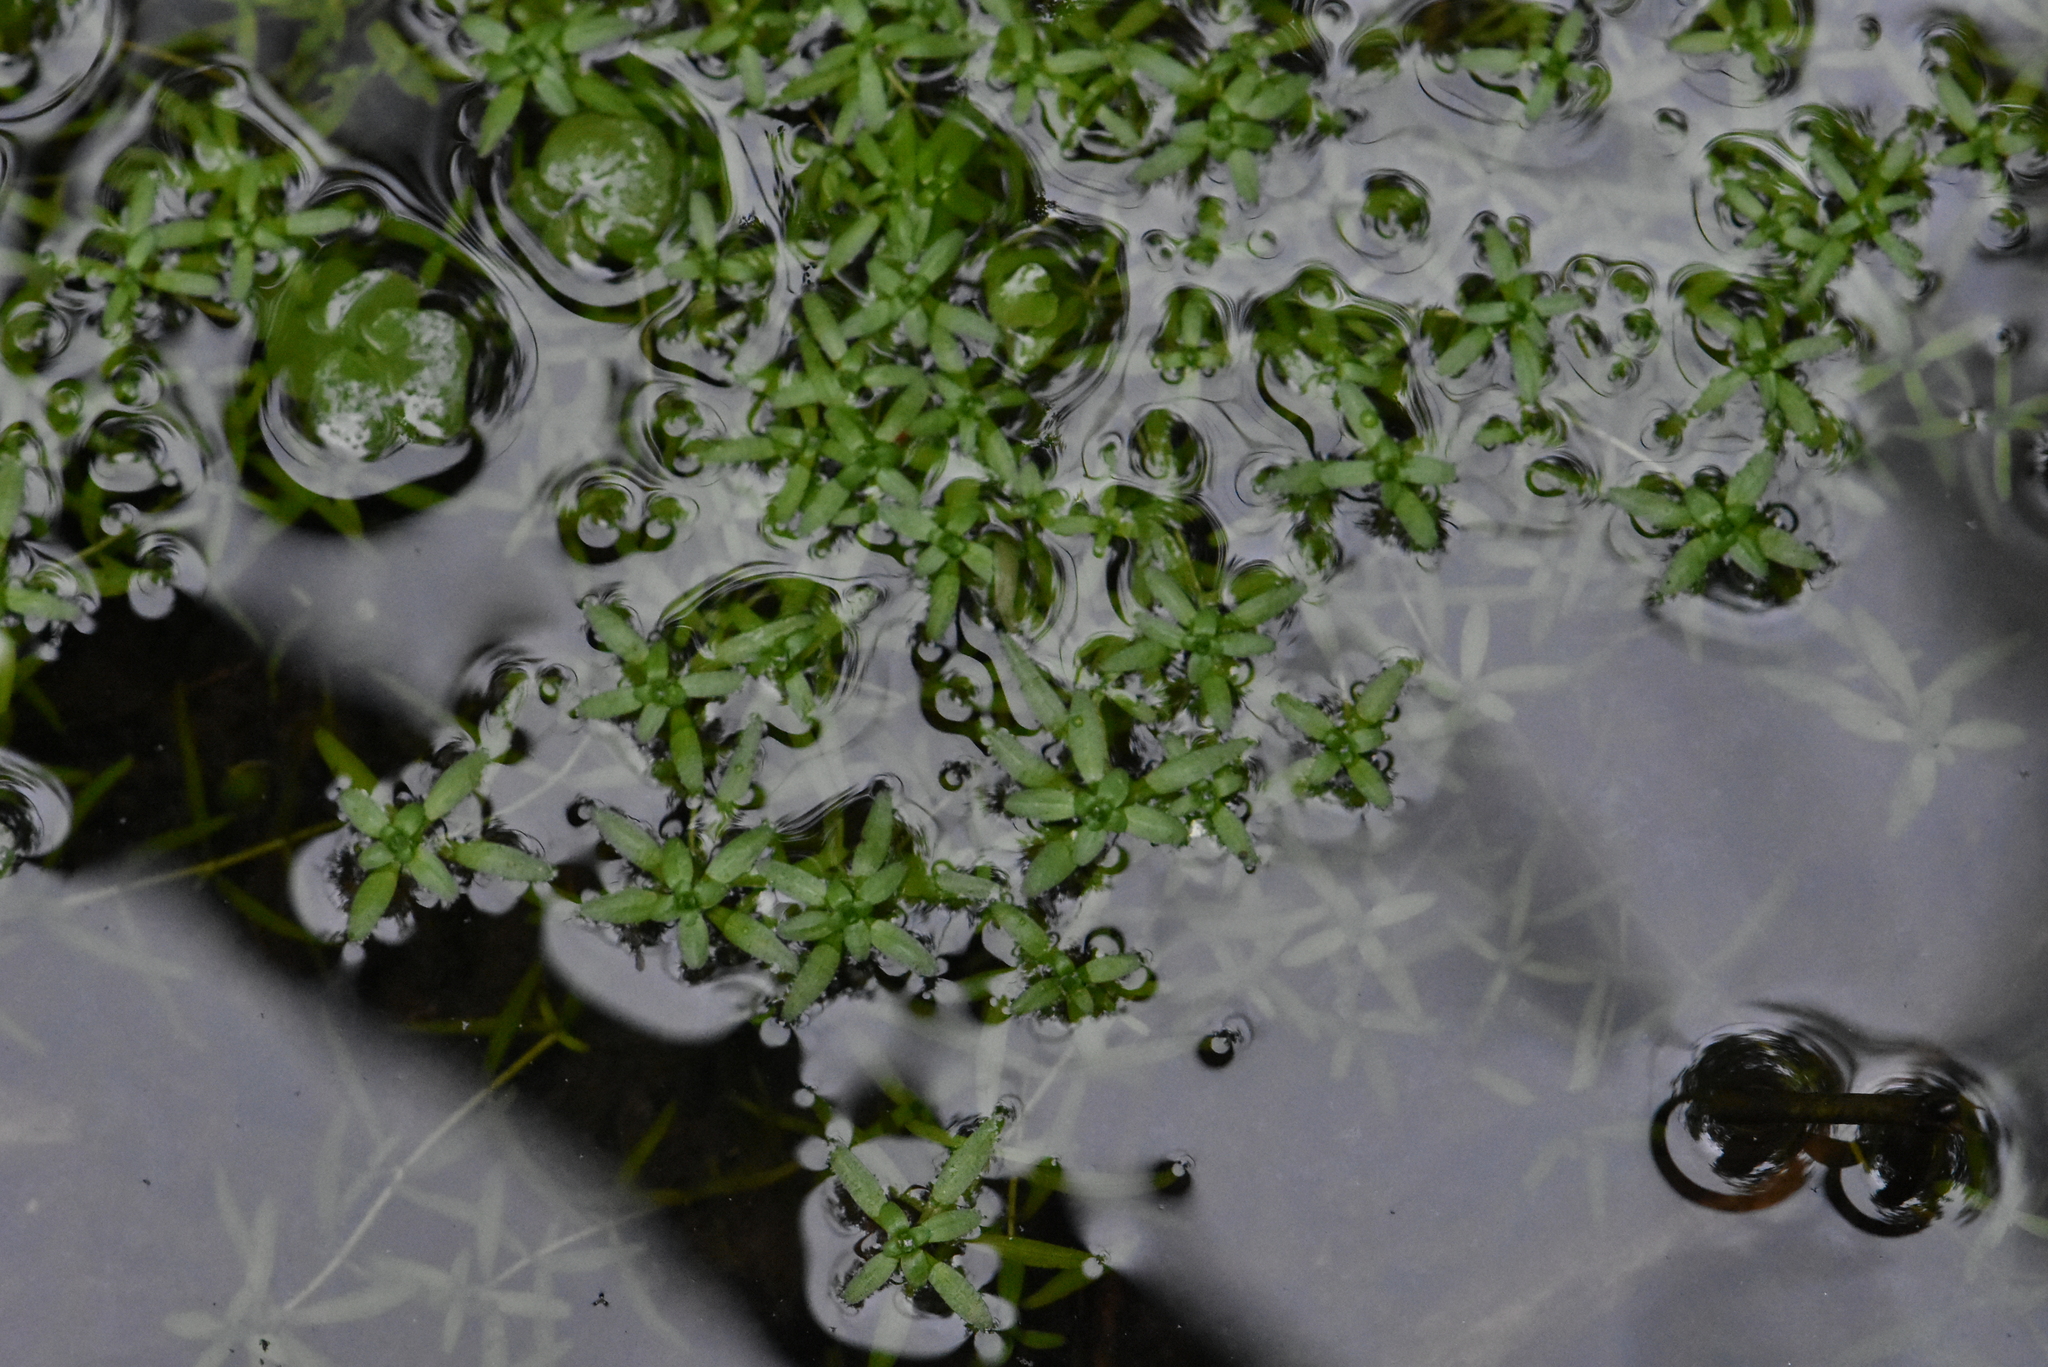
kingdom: Plantae
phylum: Tracheophyta
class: Magnoliopsida
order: Lamiales
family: Plantaginaceae
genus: Callitriche
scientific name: Callitriche
